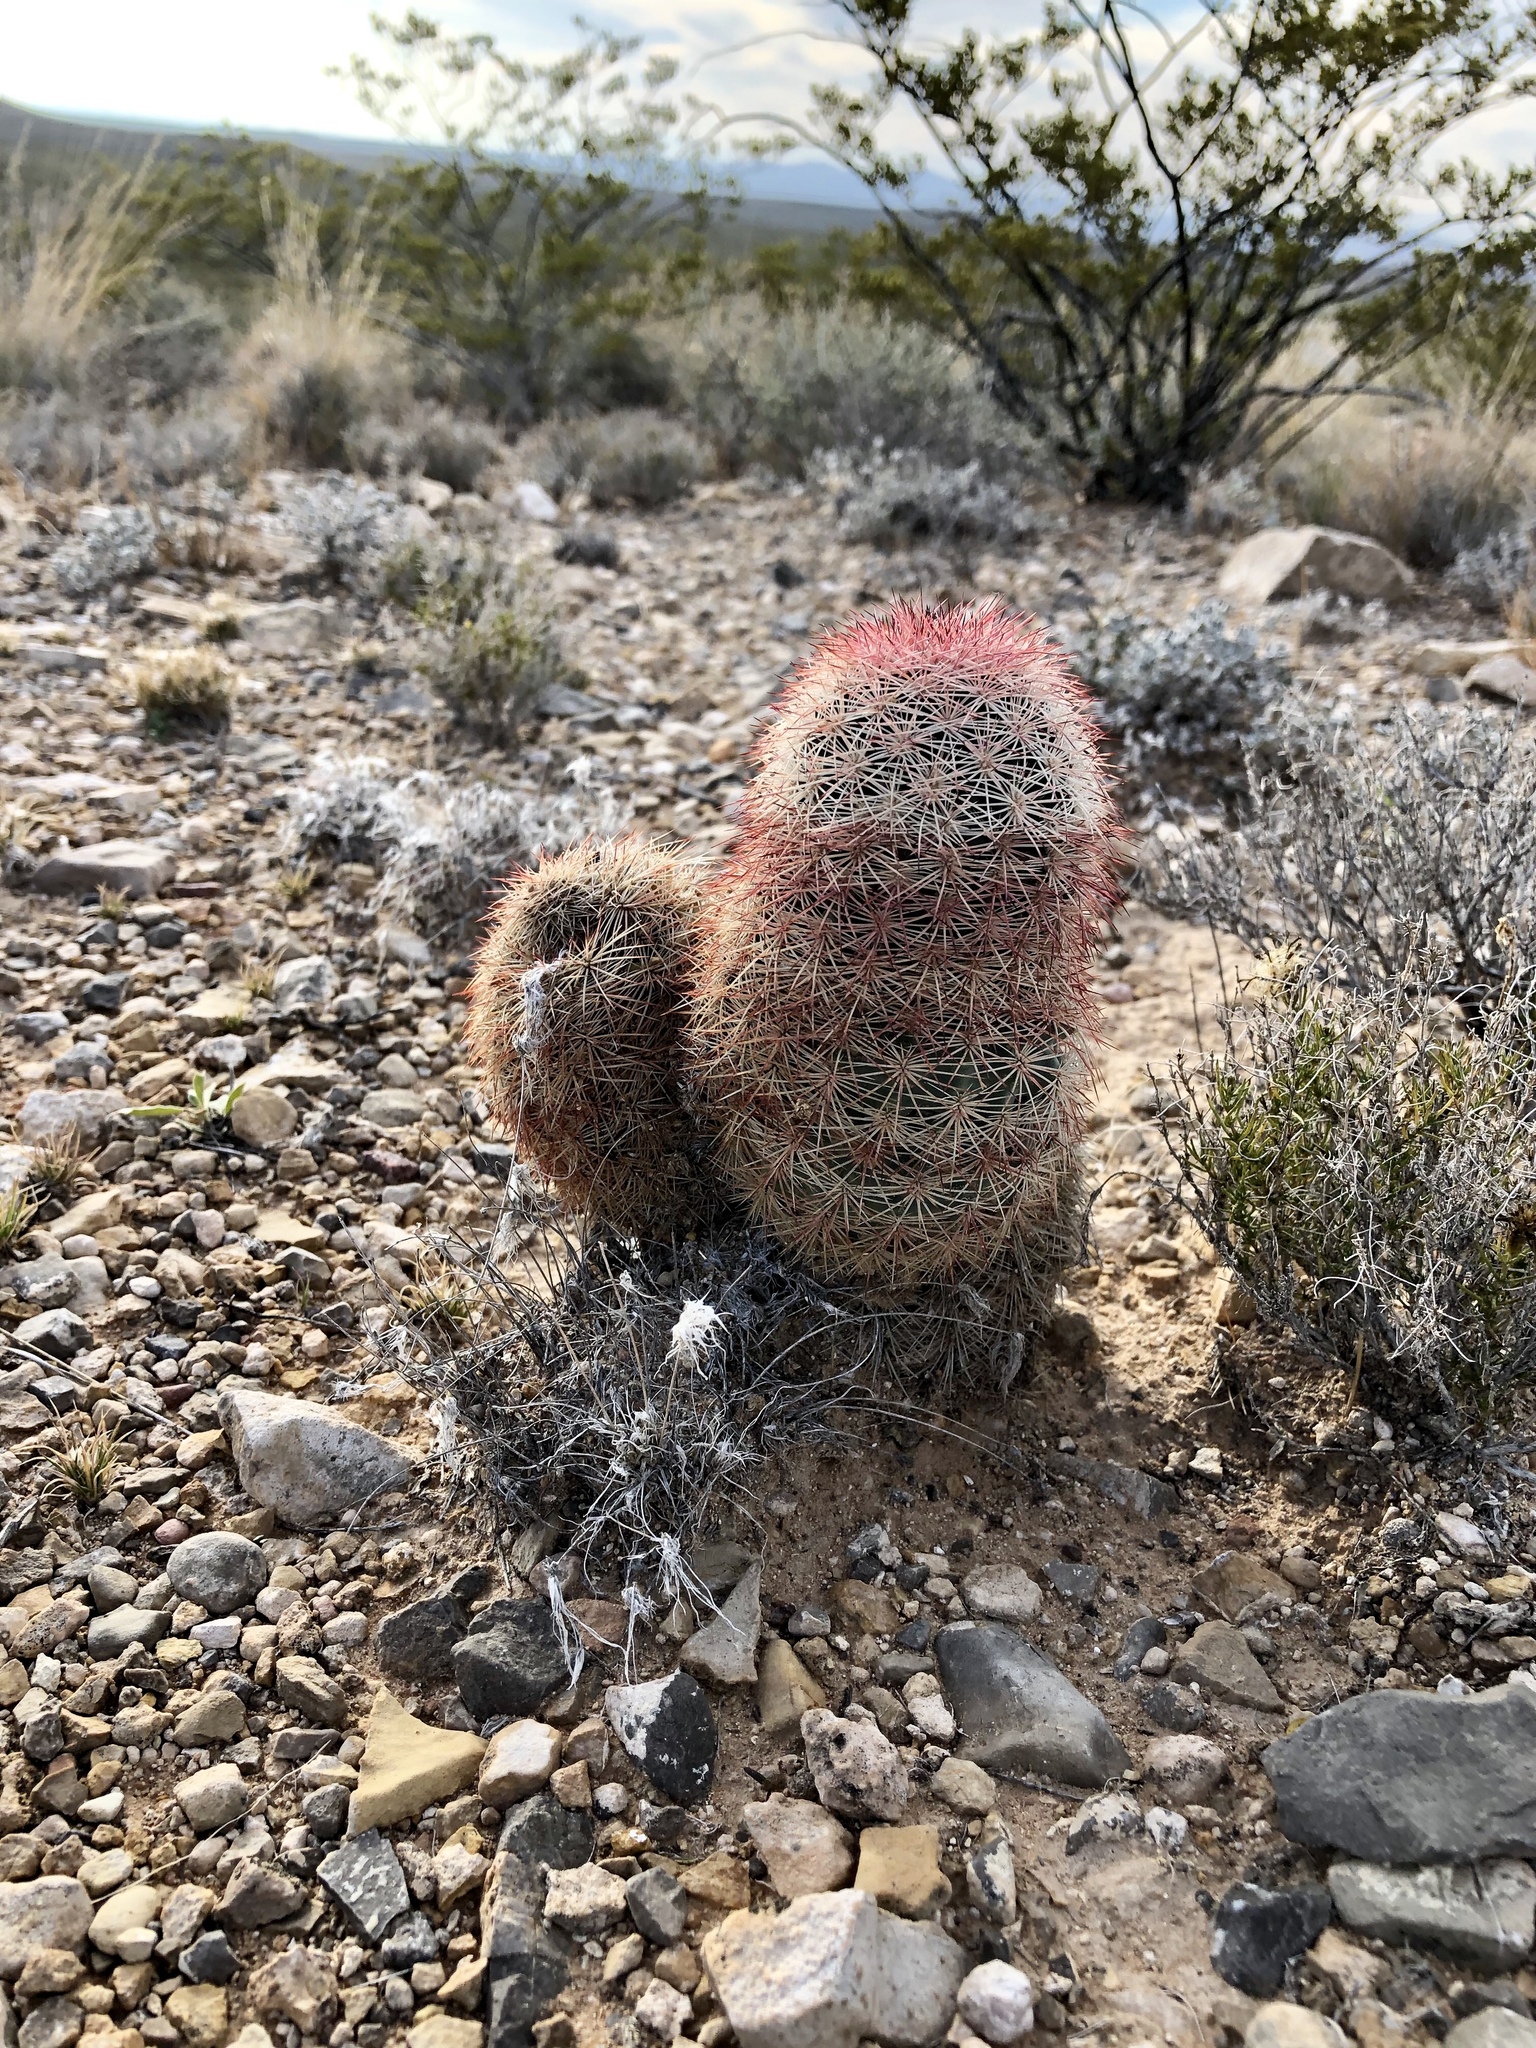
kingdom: Plantae
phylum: Tracheophyta
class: Magnoliopsida
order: Caryophyllales
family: Cactaceae
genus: Echinocereus
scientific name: Echinocereus dasyacanthus
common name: Spiny hedgehog cactus
